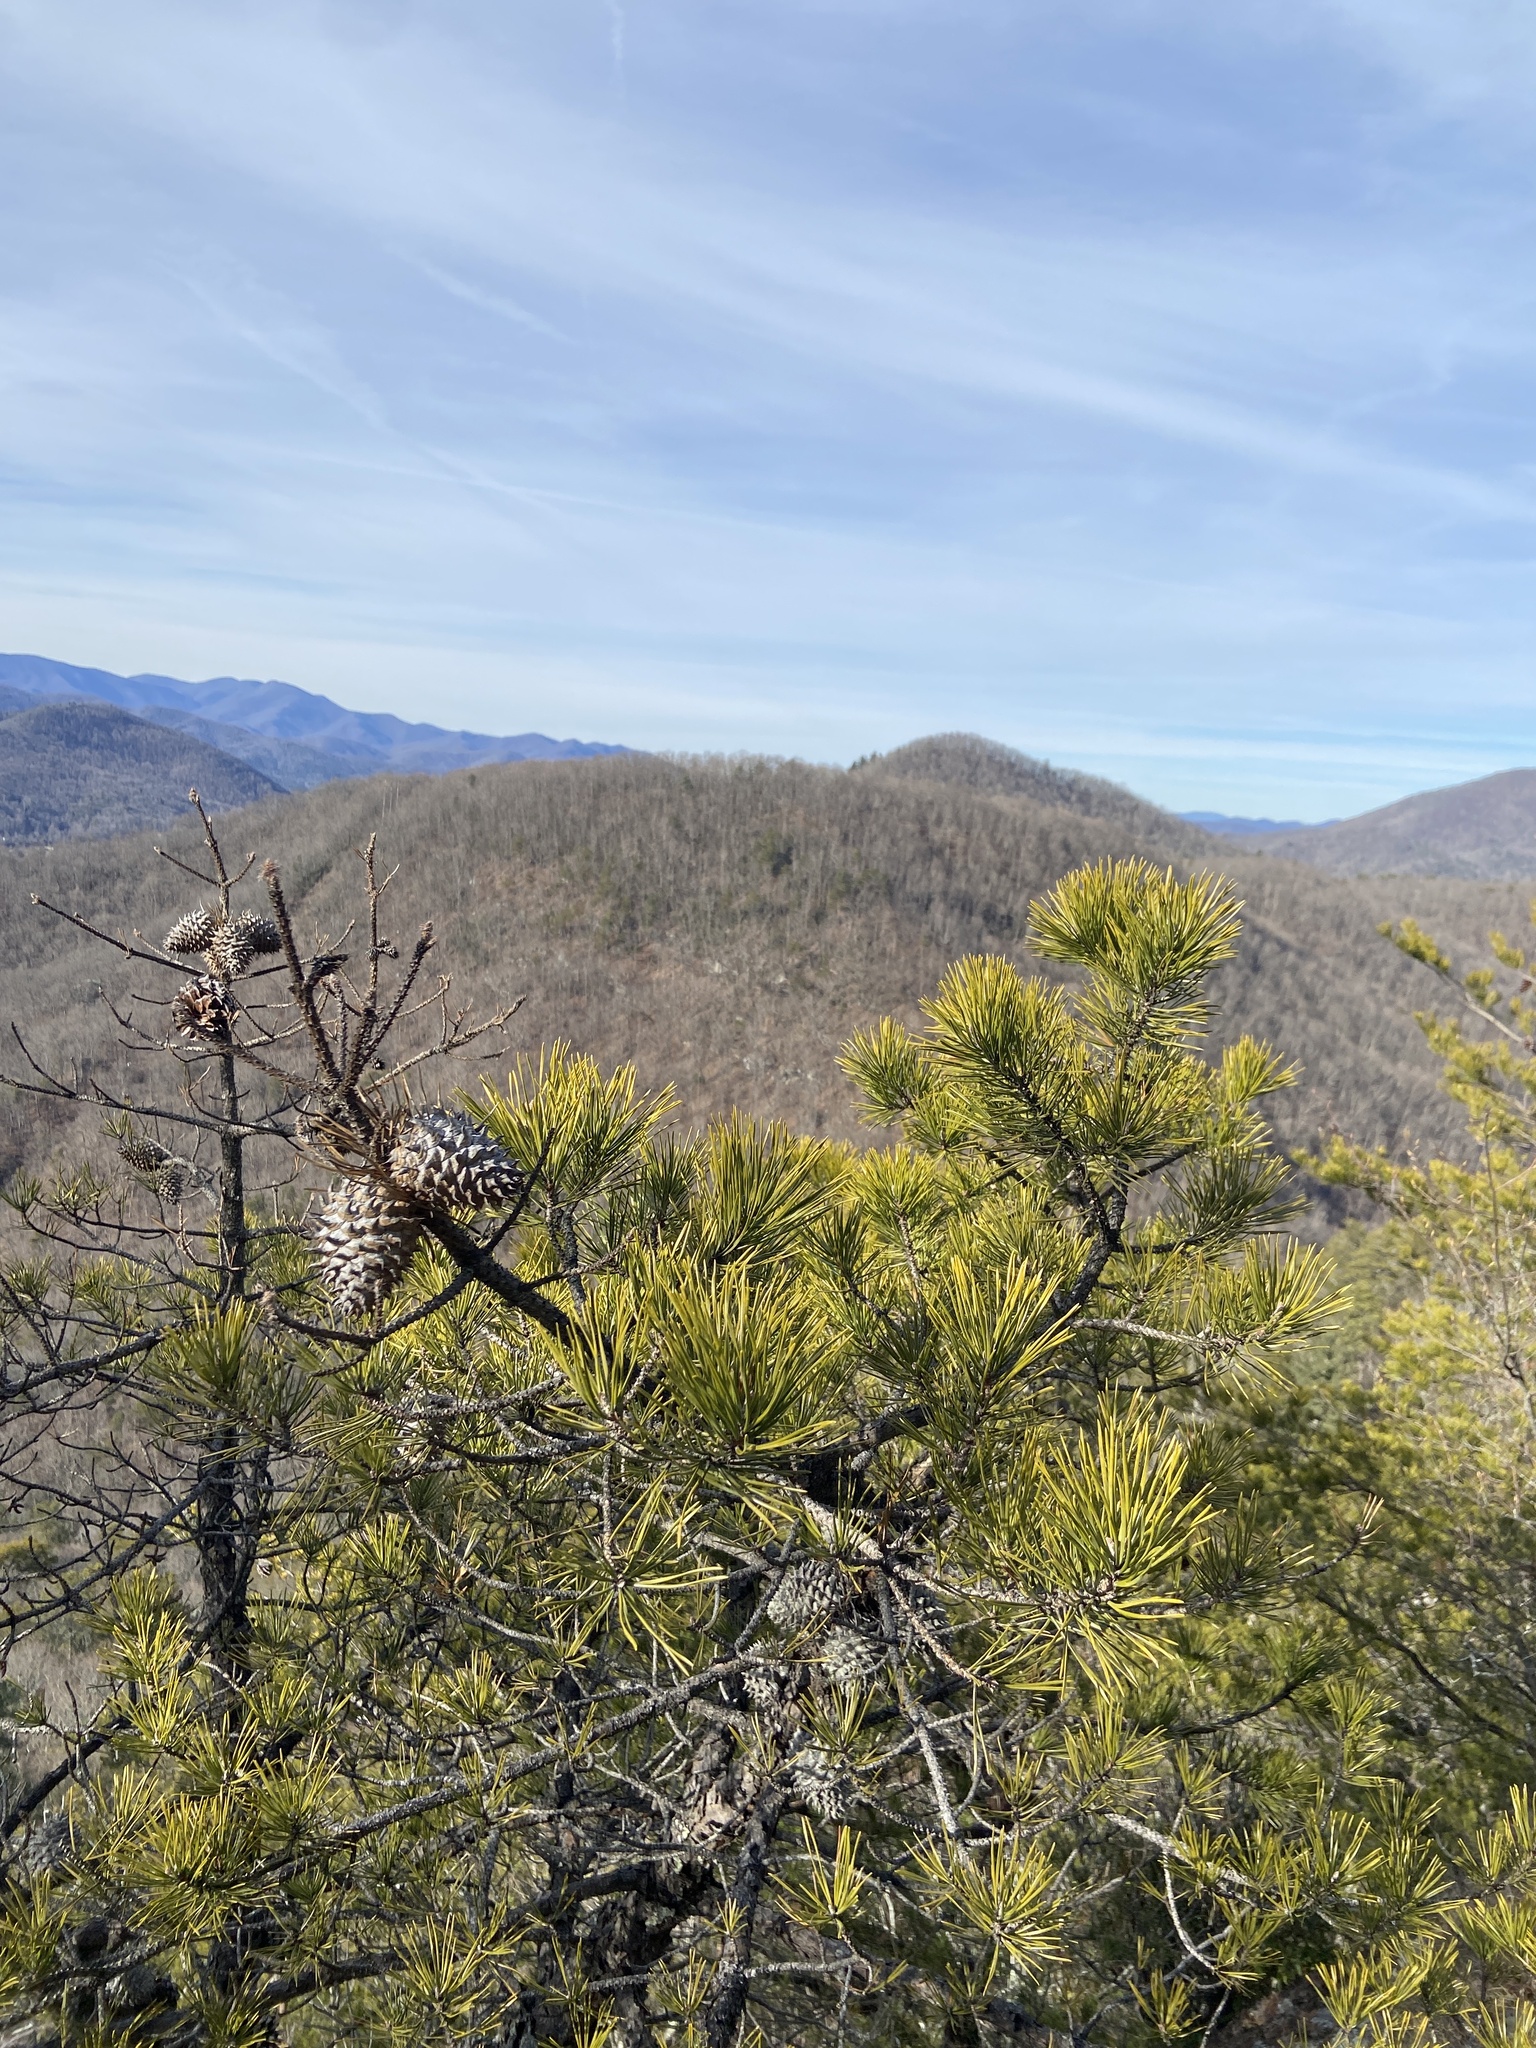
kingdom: Plantae
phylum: Tracheophyta
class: Pinopsida
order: Pinales
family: Pinaceae
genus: Pinus
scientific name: Pinus pungens
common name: Hickory pine
